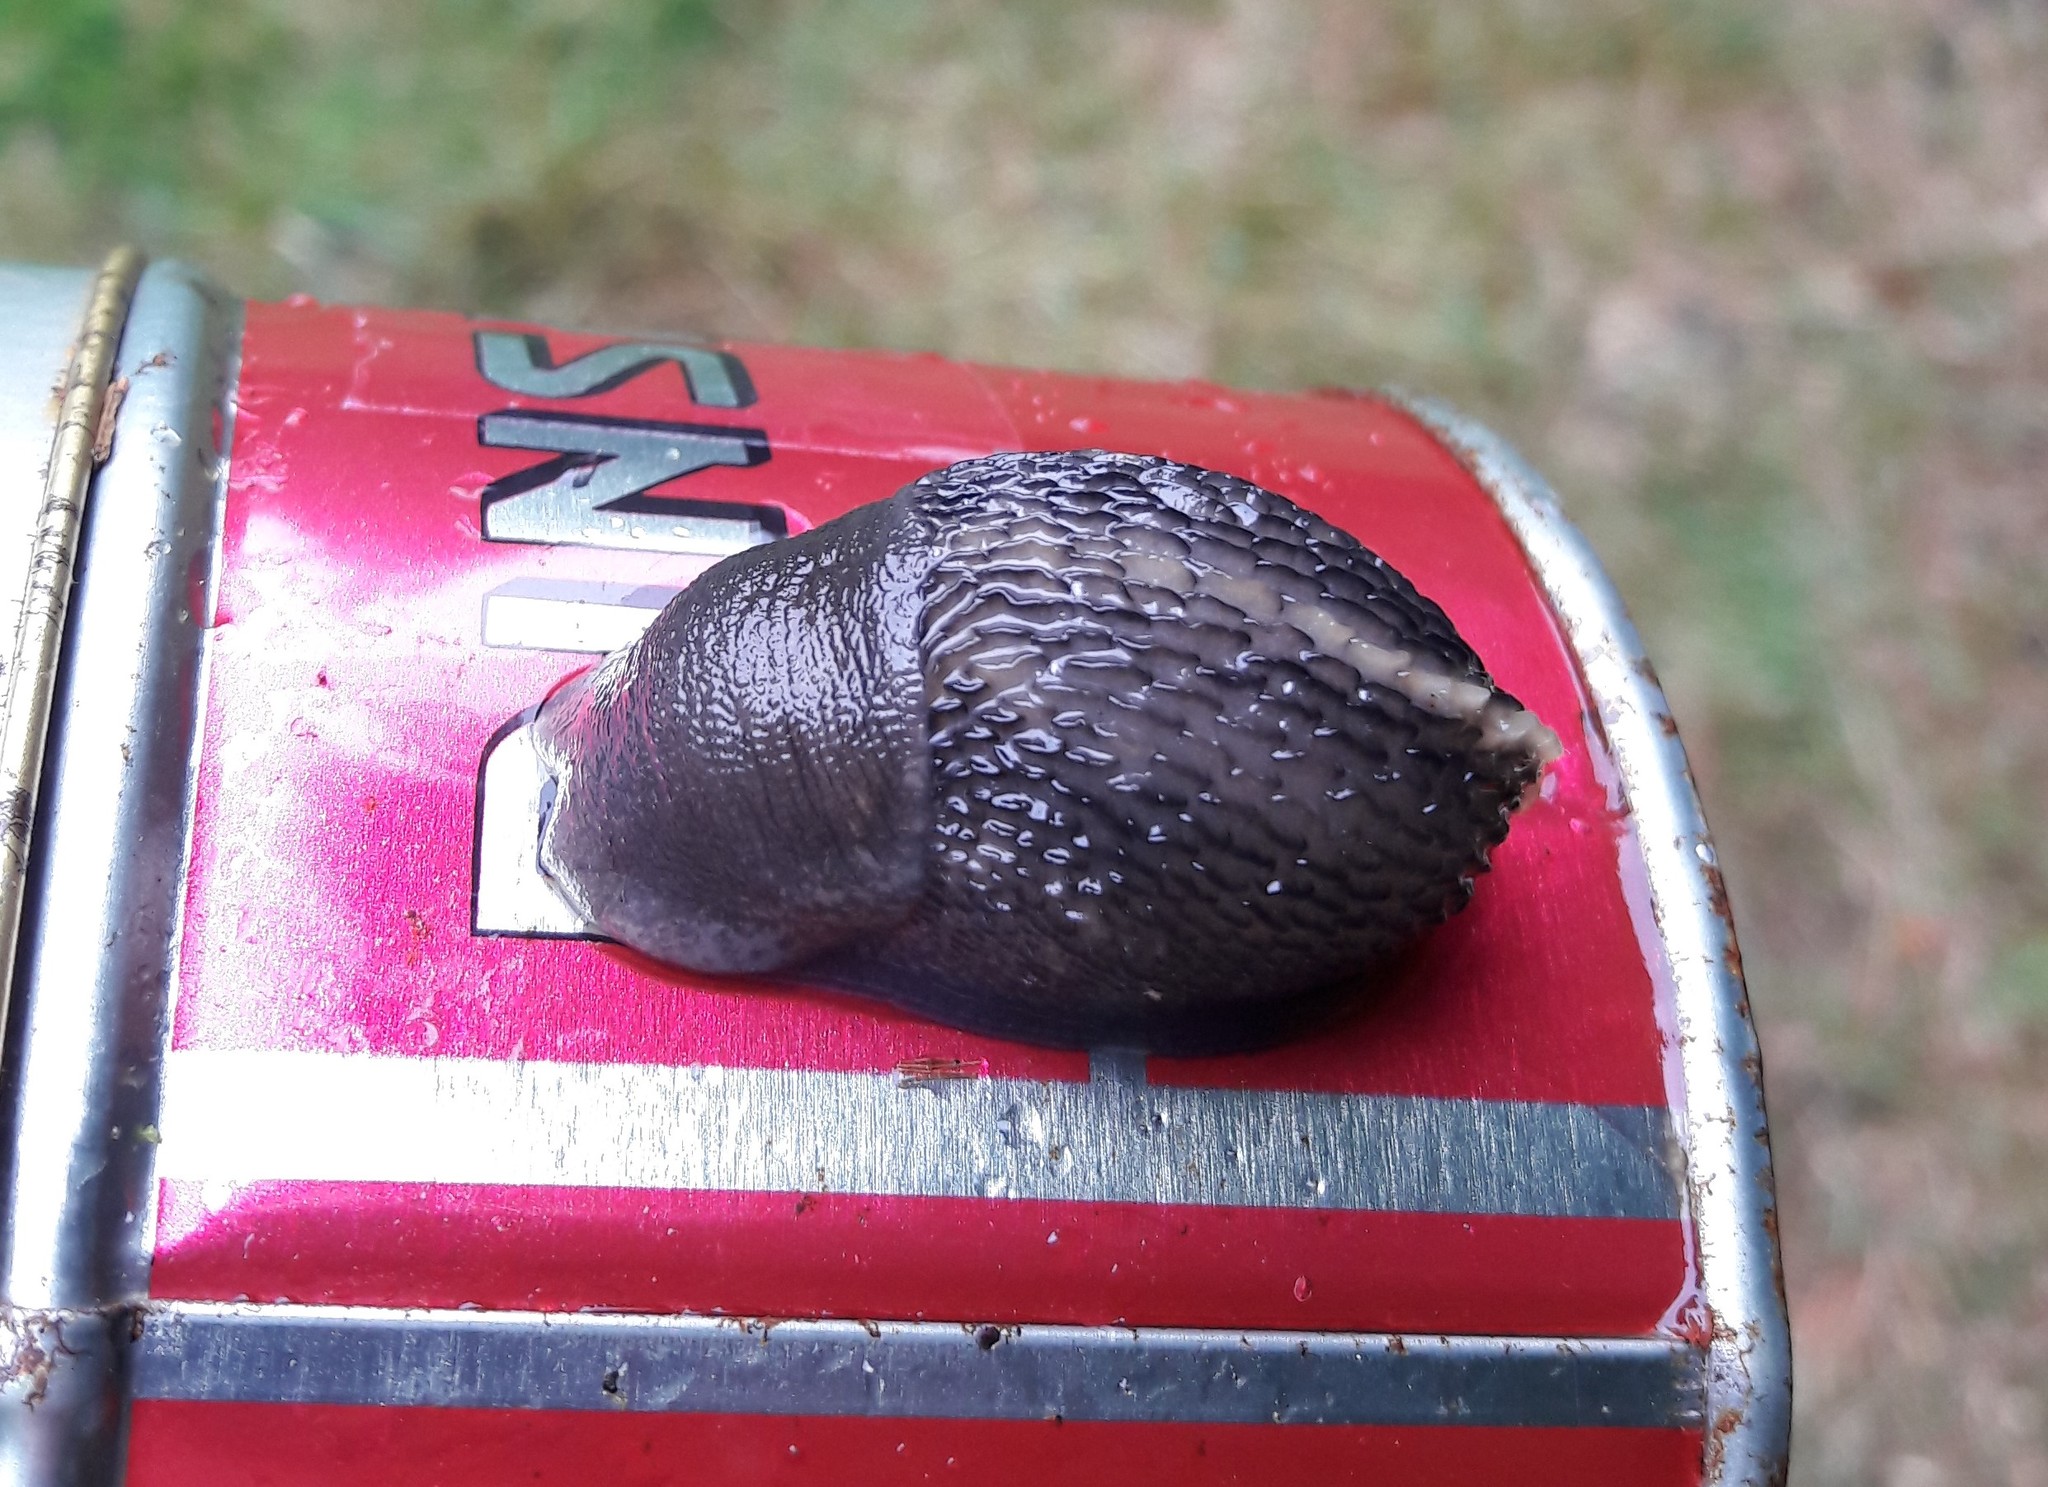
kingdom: Animalia
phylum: Mollusca
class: Gastropoda
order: Stylommatophora
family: Limacidae
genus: Limax
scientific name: Limax cinereoniger
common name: Ash-black slug
